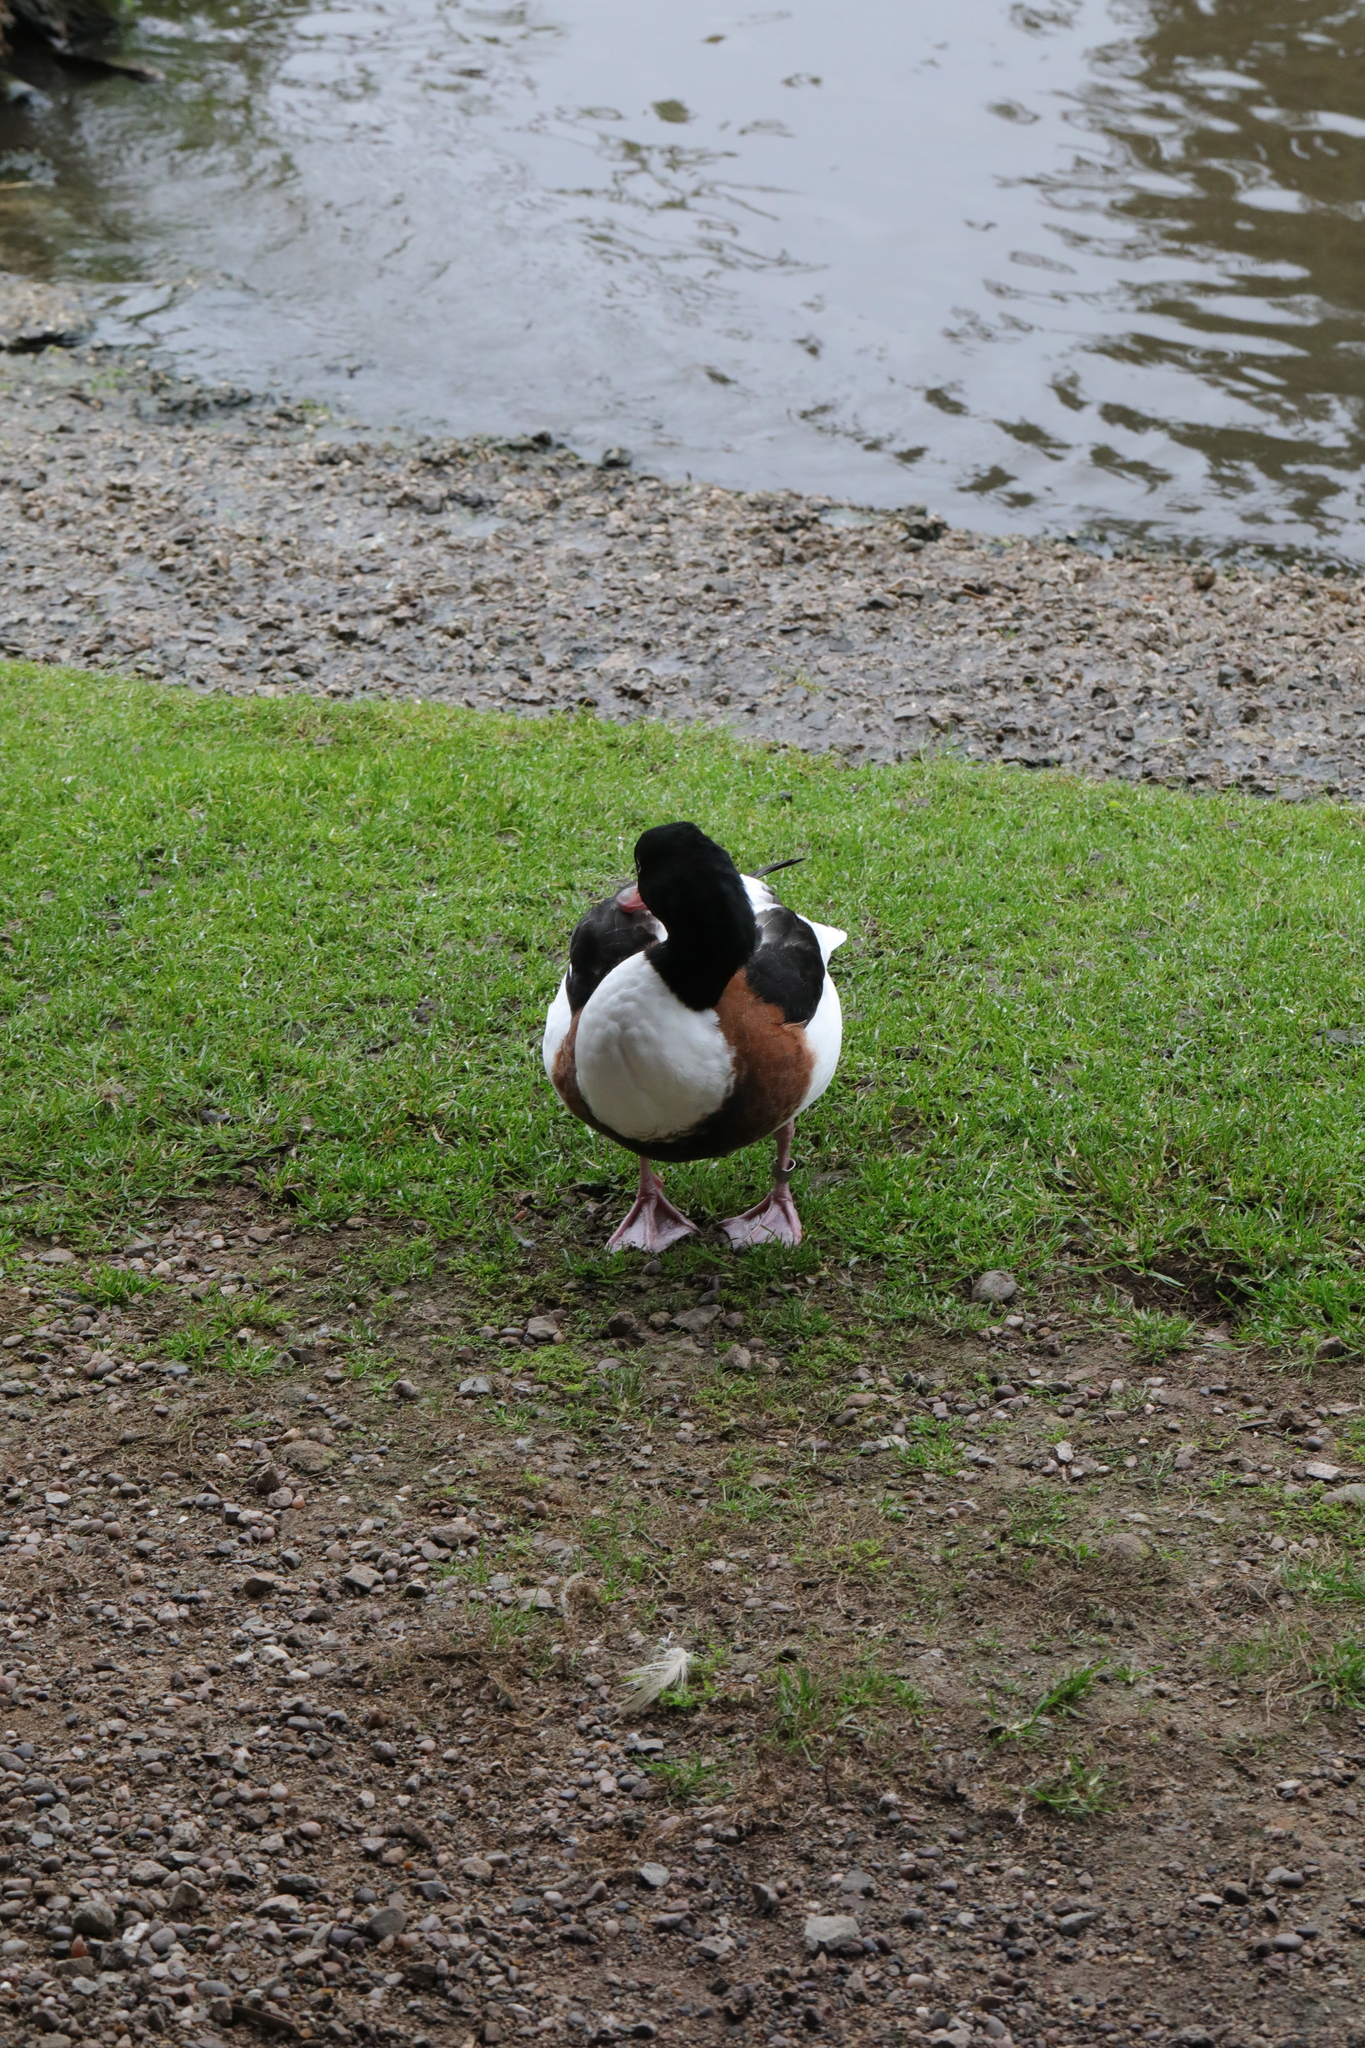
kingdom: Animalia
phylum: Chordata
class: Aves
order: Anseriformes
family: Anatidae
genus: Tadorna
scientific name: Tadorna tadorna
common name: Common shelduck
